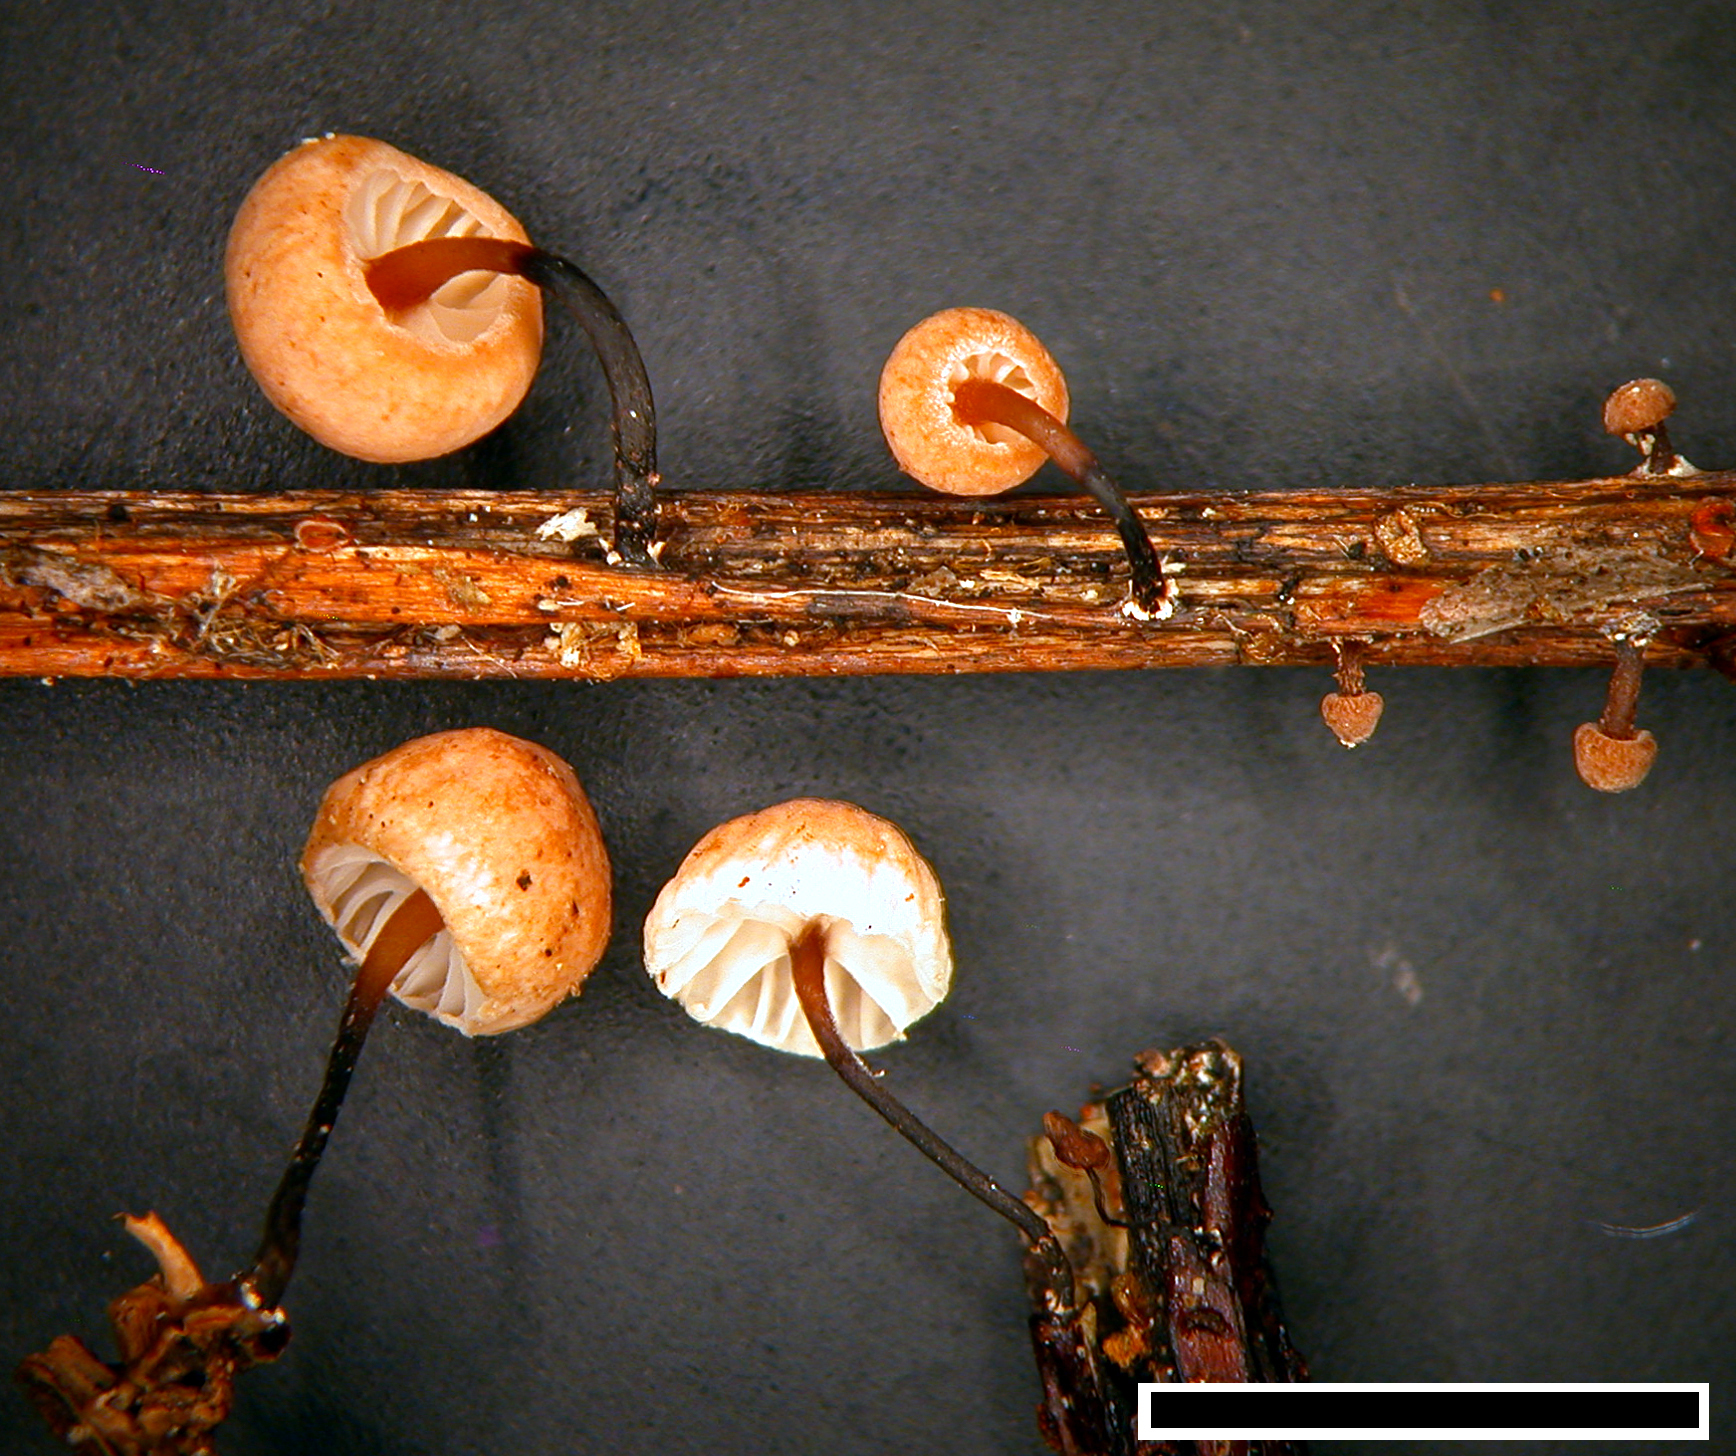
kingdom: Fungi
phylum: Basidiomycota
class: Agaricomycetes
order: Agaricales
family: Physalacriaceae
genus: Gloiocephala
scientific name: Gloiocephala nothofagi
